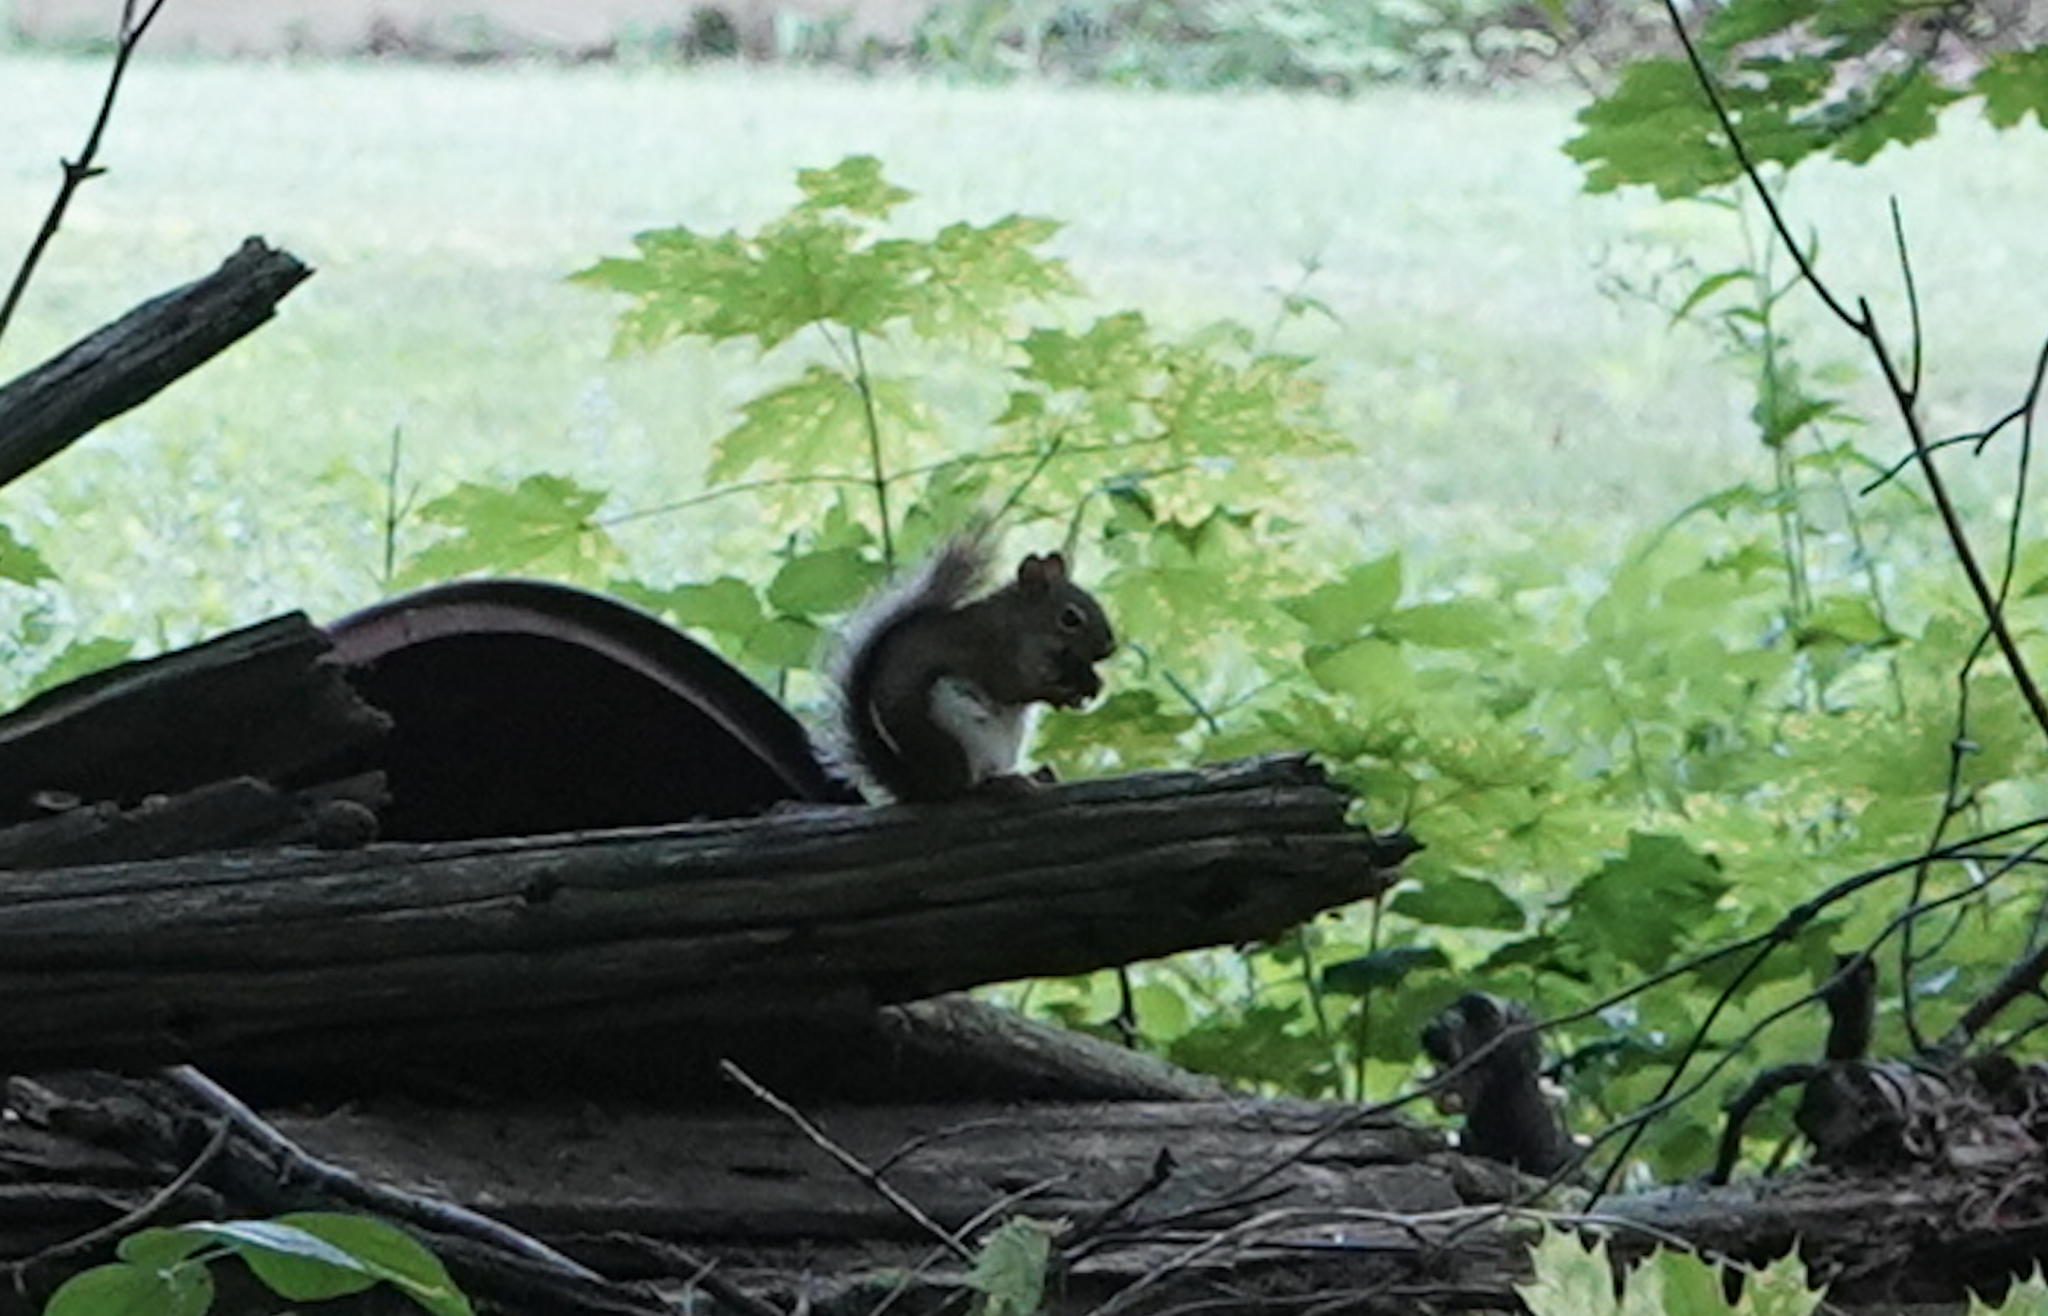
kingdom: Animalia
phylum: Chordata
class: Mammalia
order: Rodentia
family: Sciuridae
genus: Tamiasciurus
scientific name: Tamiasciurus hudsonicus
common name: Red squirrel
